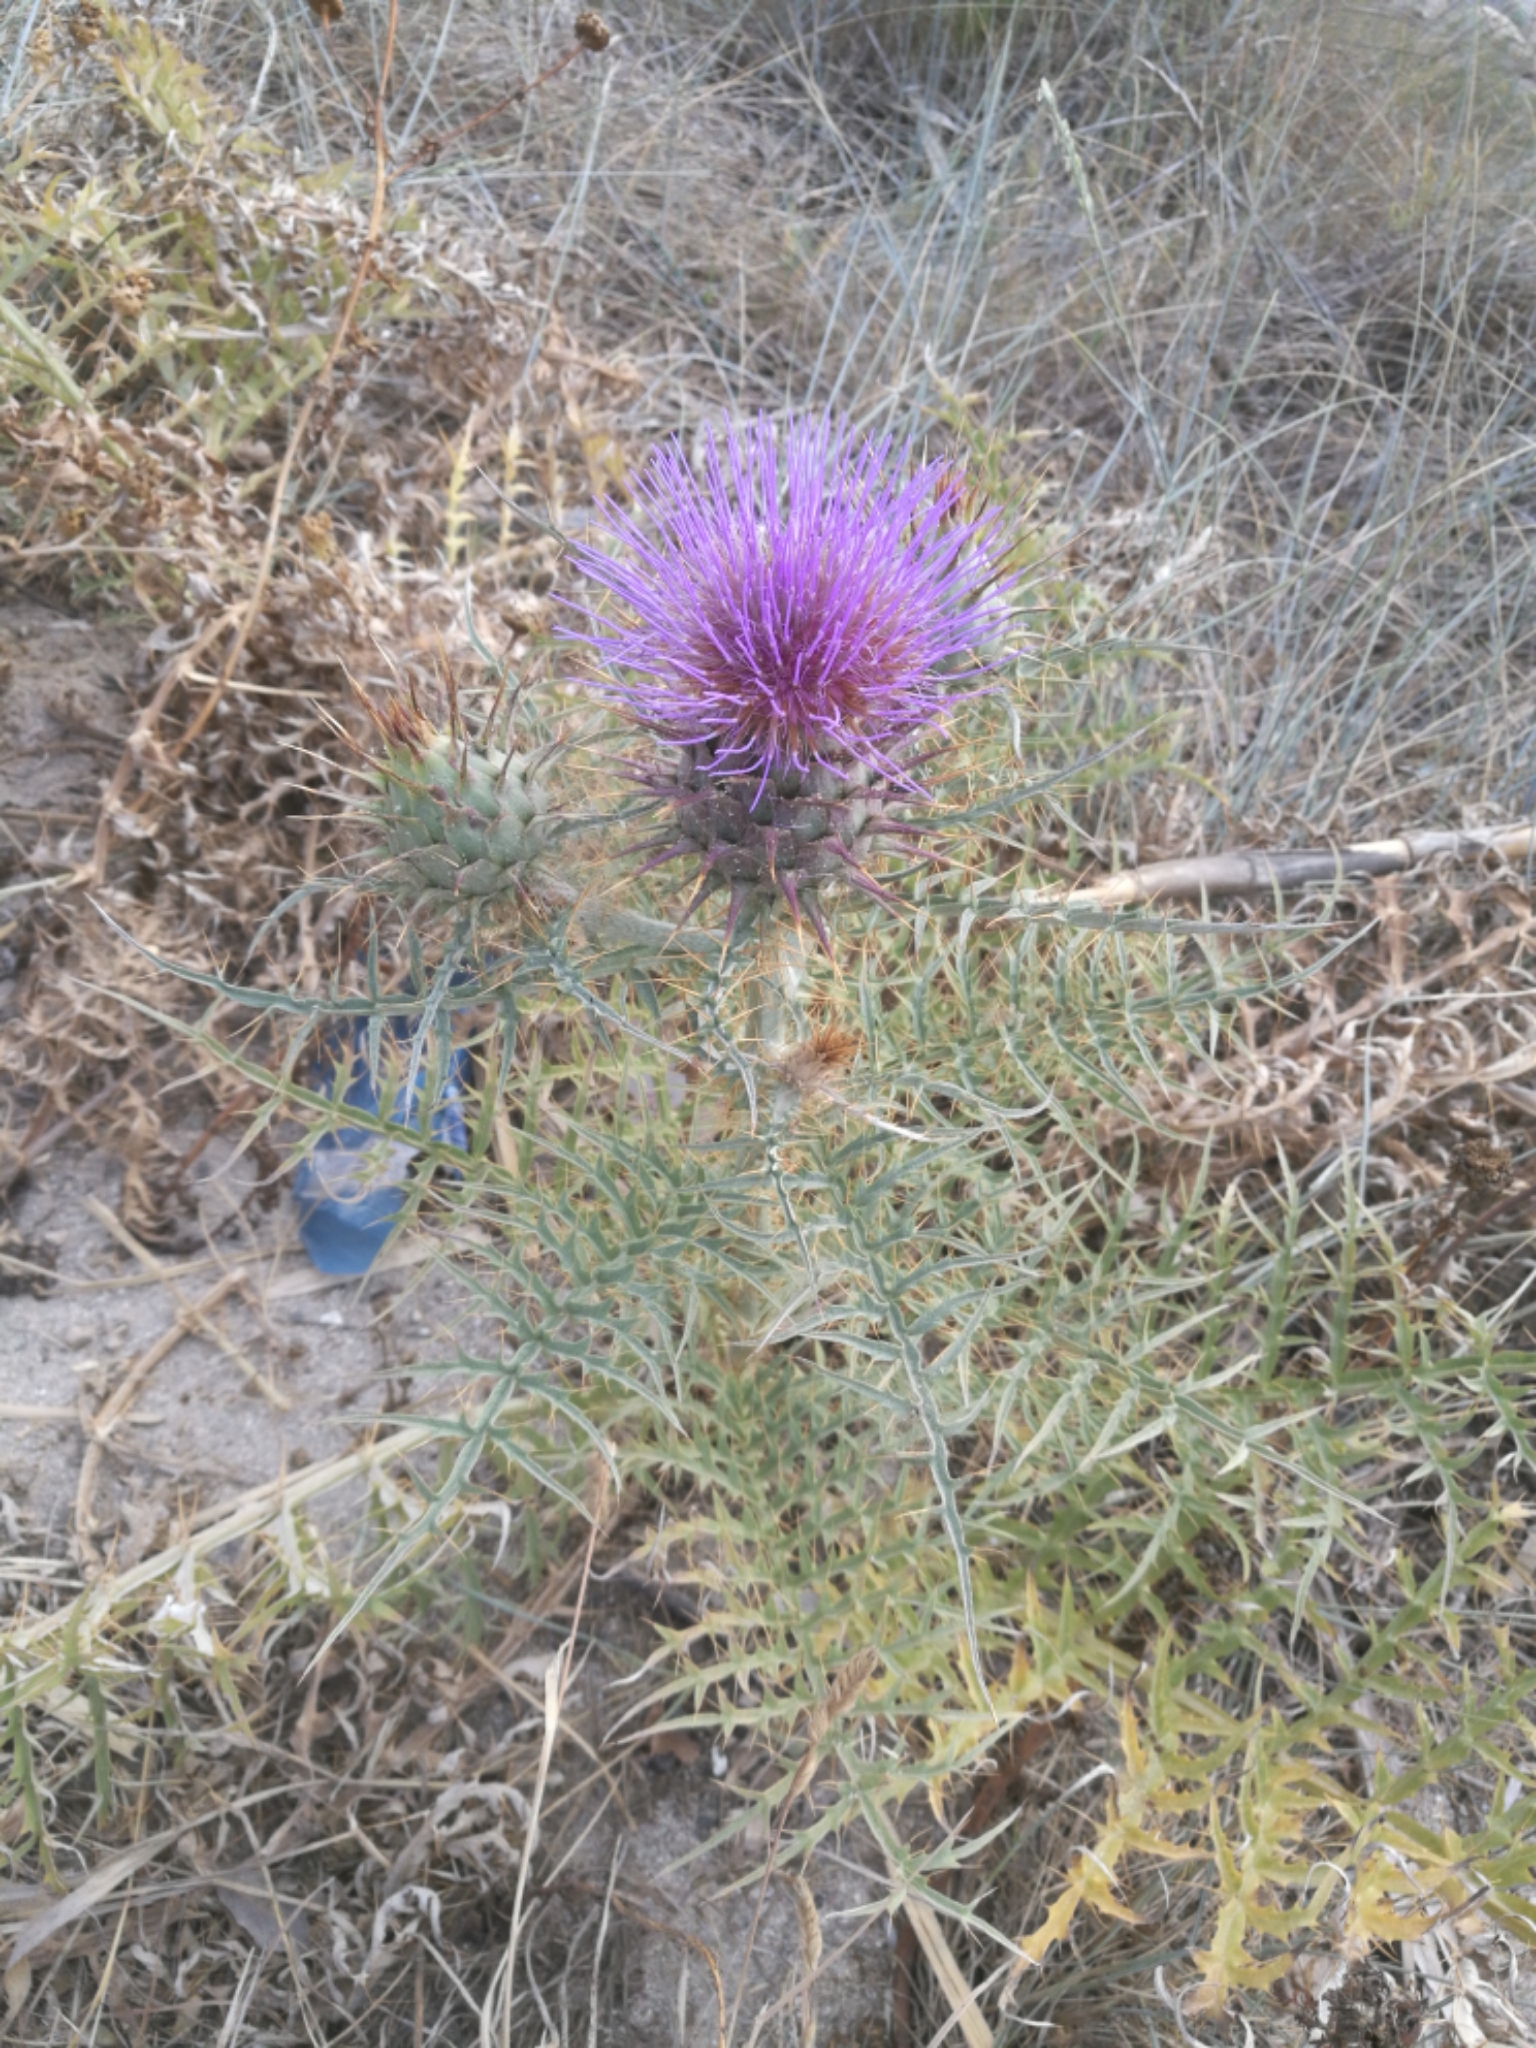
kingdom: Plantae
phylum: Tracheophyta
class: Magnoliopsida
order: Asterales
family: Asteraceae
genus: Cynara
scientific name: Cynara cardunculus
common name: Globe artichoke
